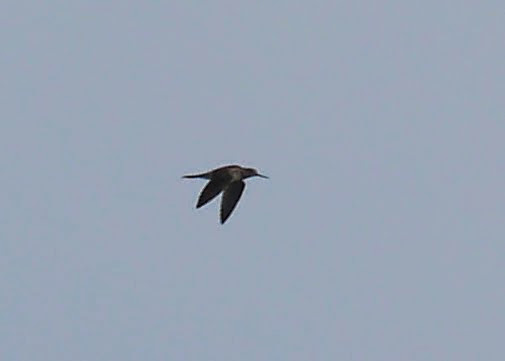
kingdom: Animalia
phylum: Chordata
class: Aves
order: Charadriiformes
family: Scolopacidae
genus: Tringa
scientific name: Tringa melanoleuca
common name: Greater yellowlegs
